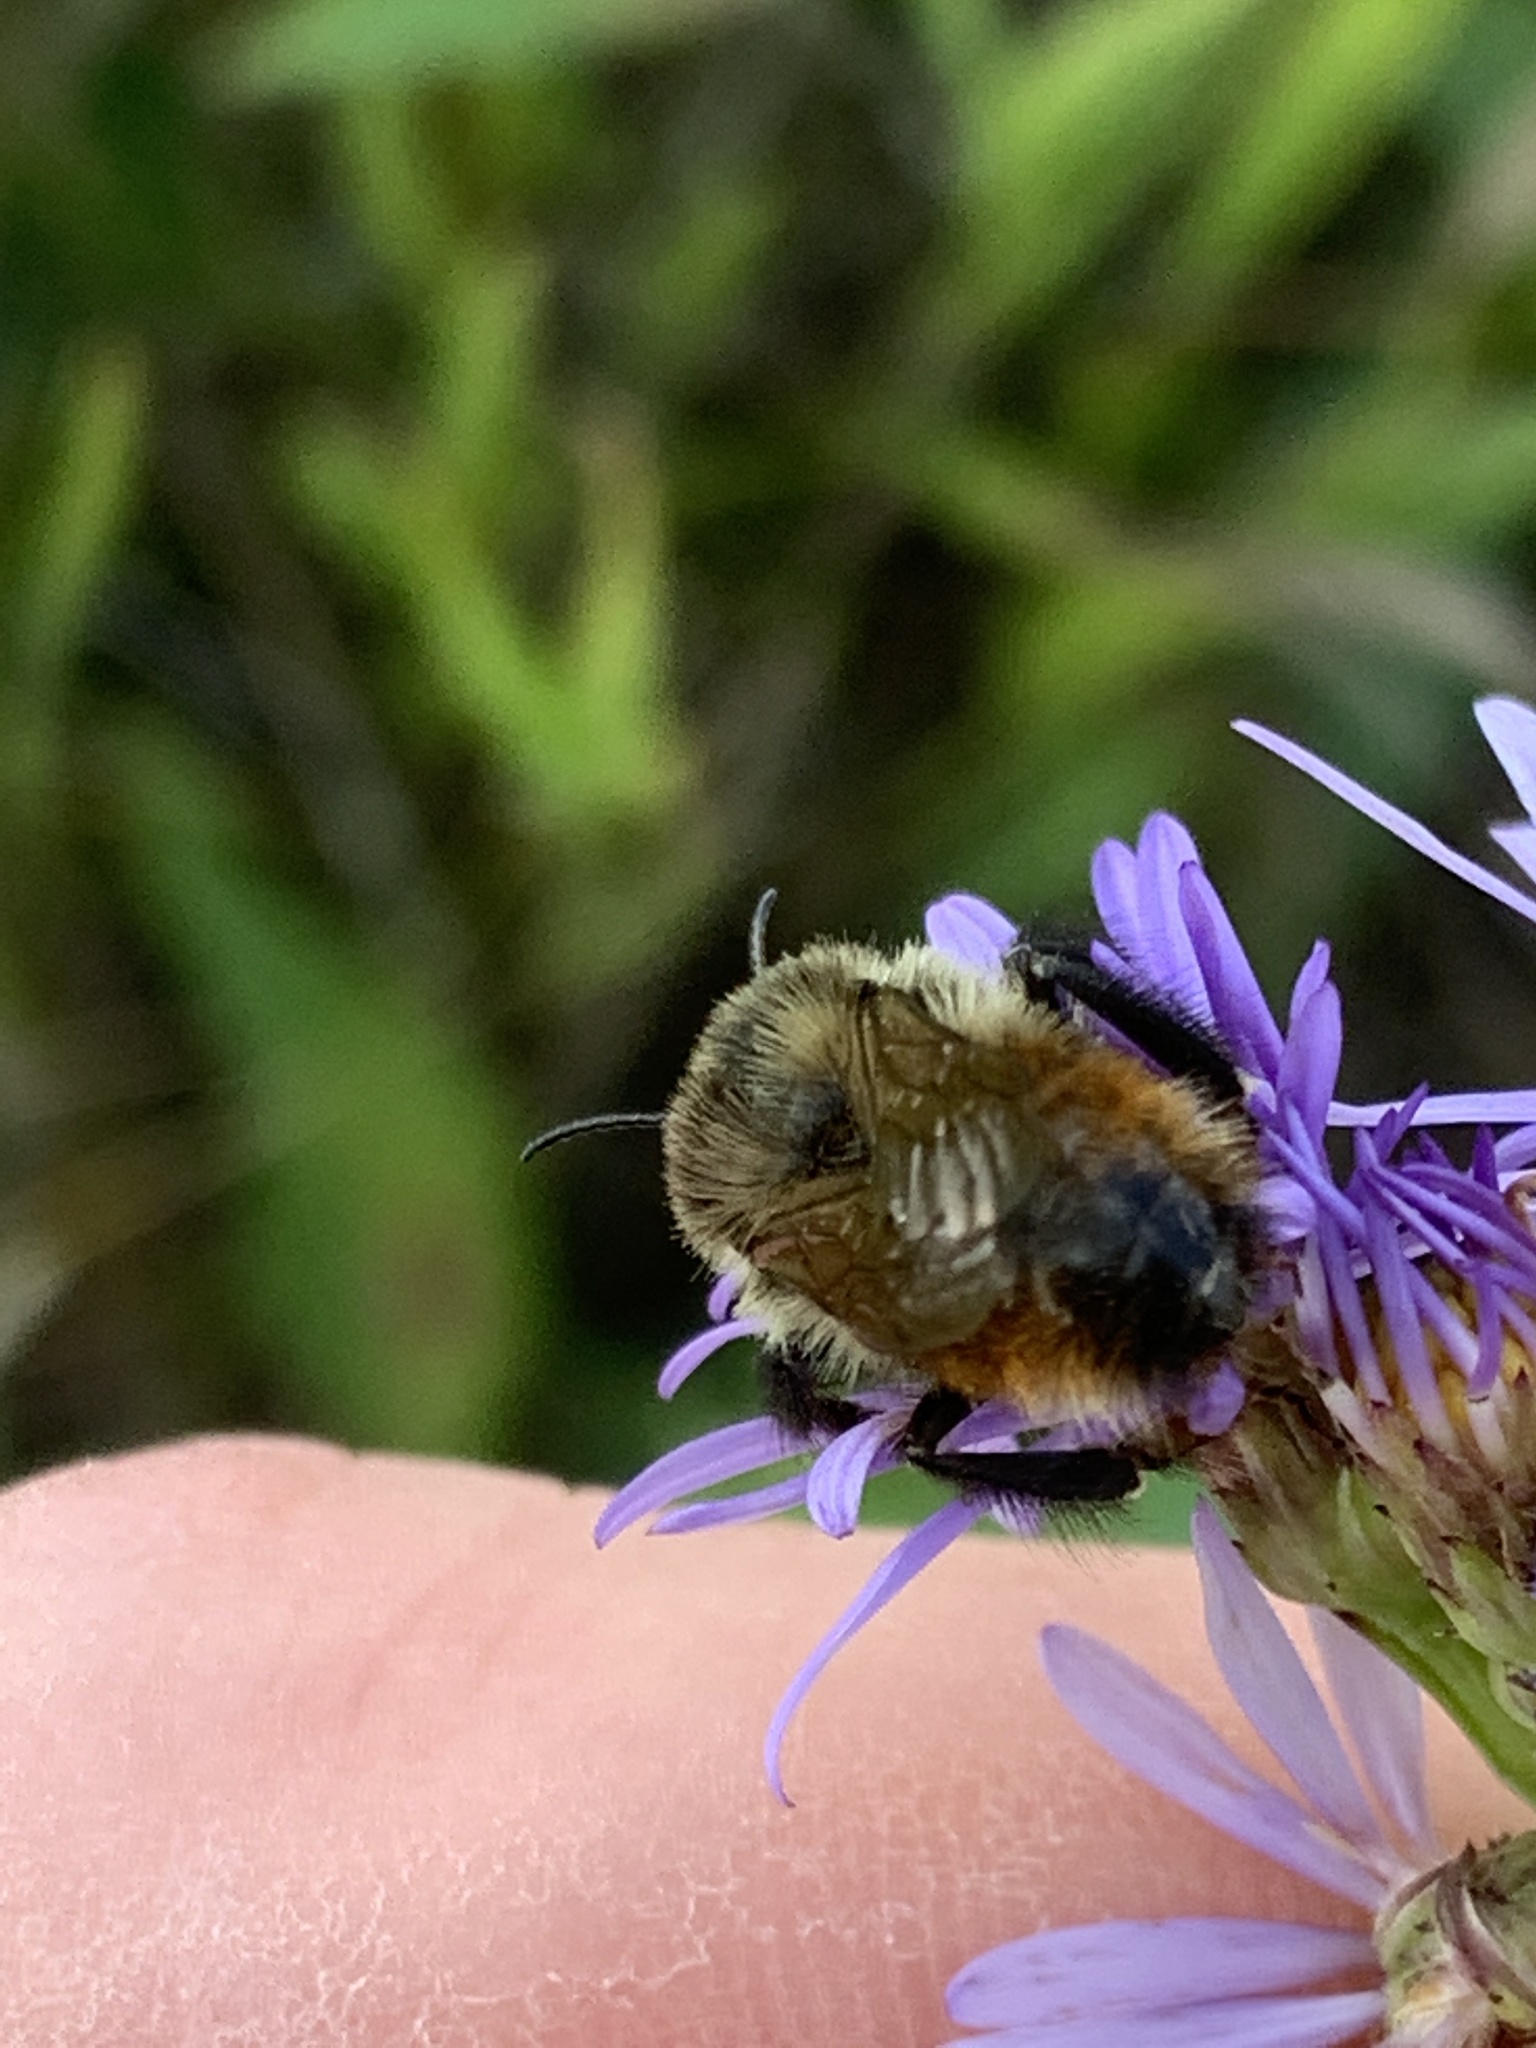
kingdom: Animalia
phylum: Arthropoda
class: Insecta
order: Hymenoptera
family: Apidae
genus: Bombus
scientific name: Bombus rufocinctus
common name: Red-belted bumble bee
